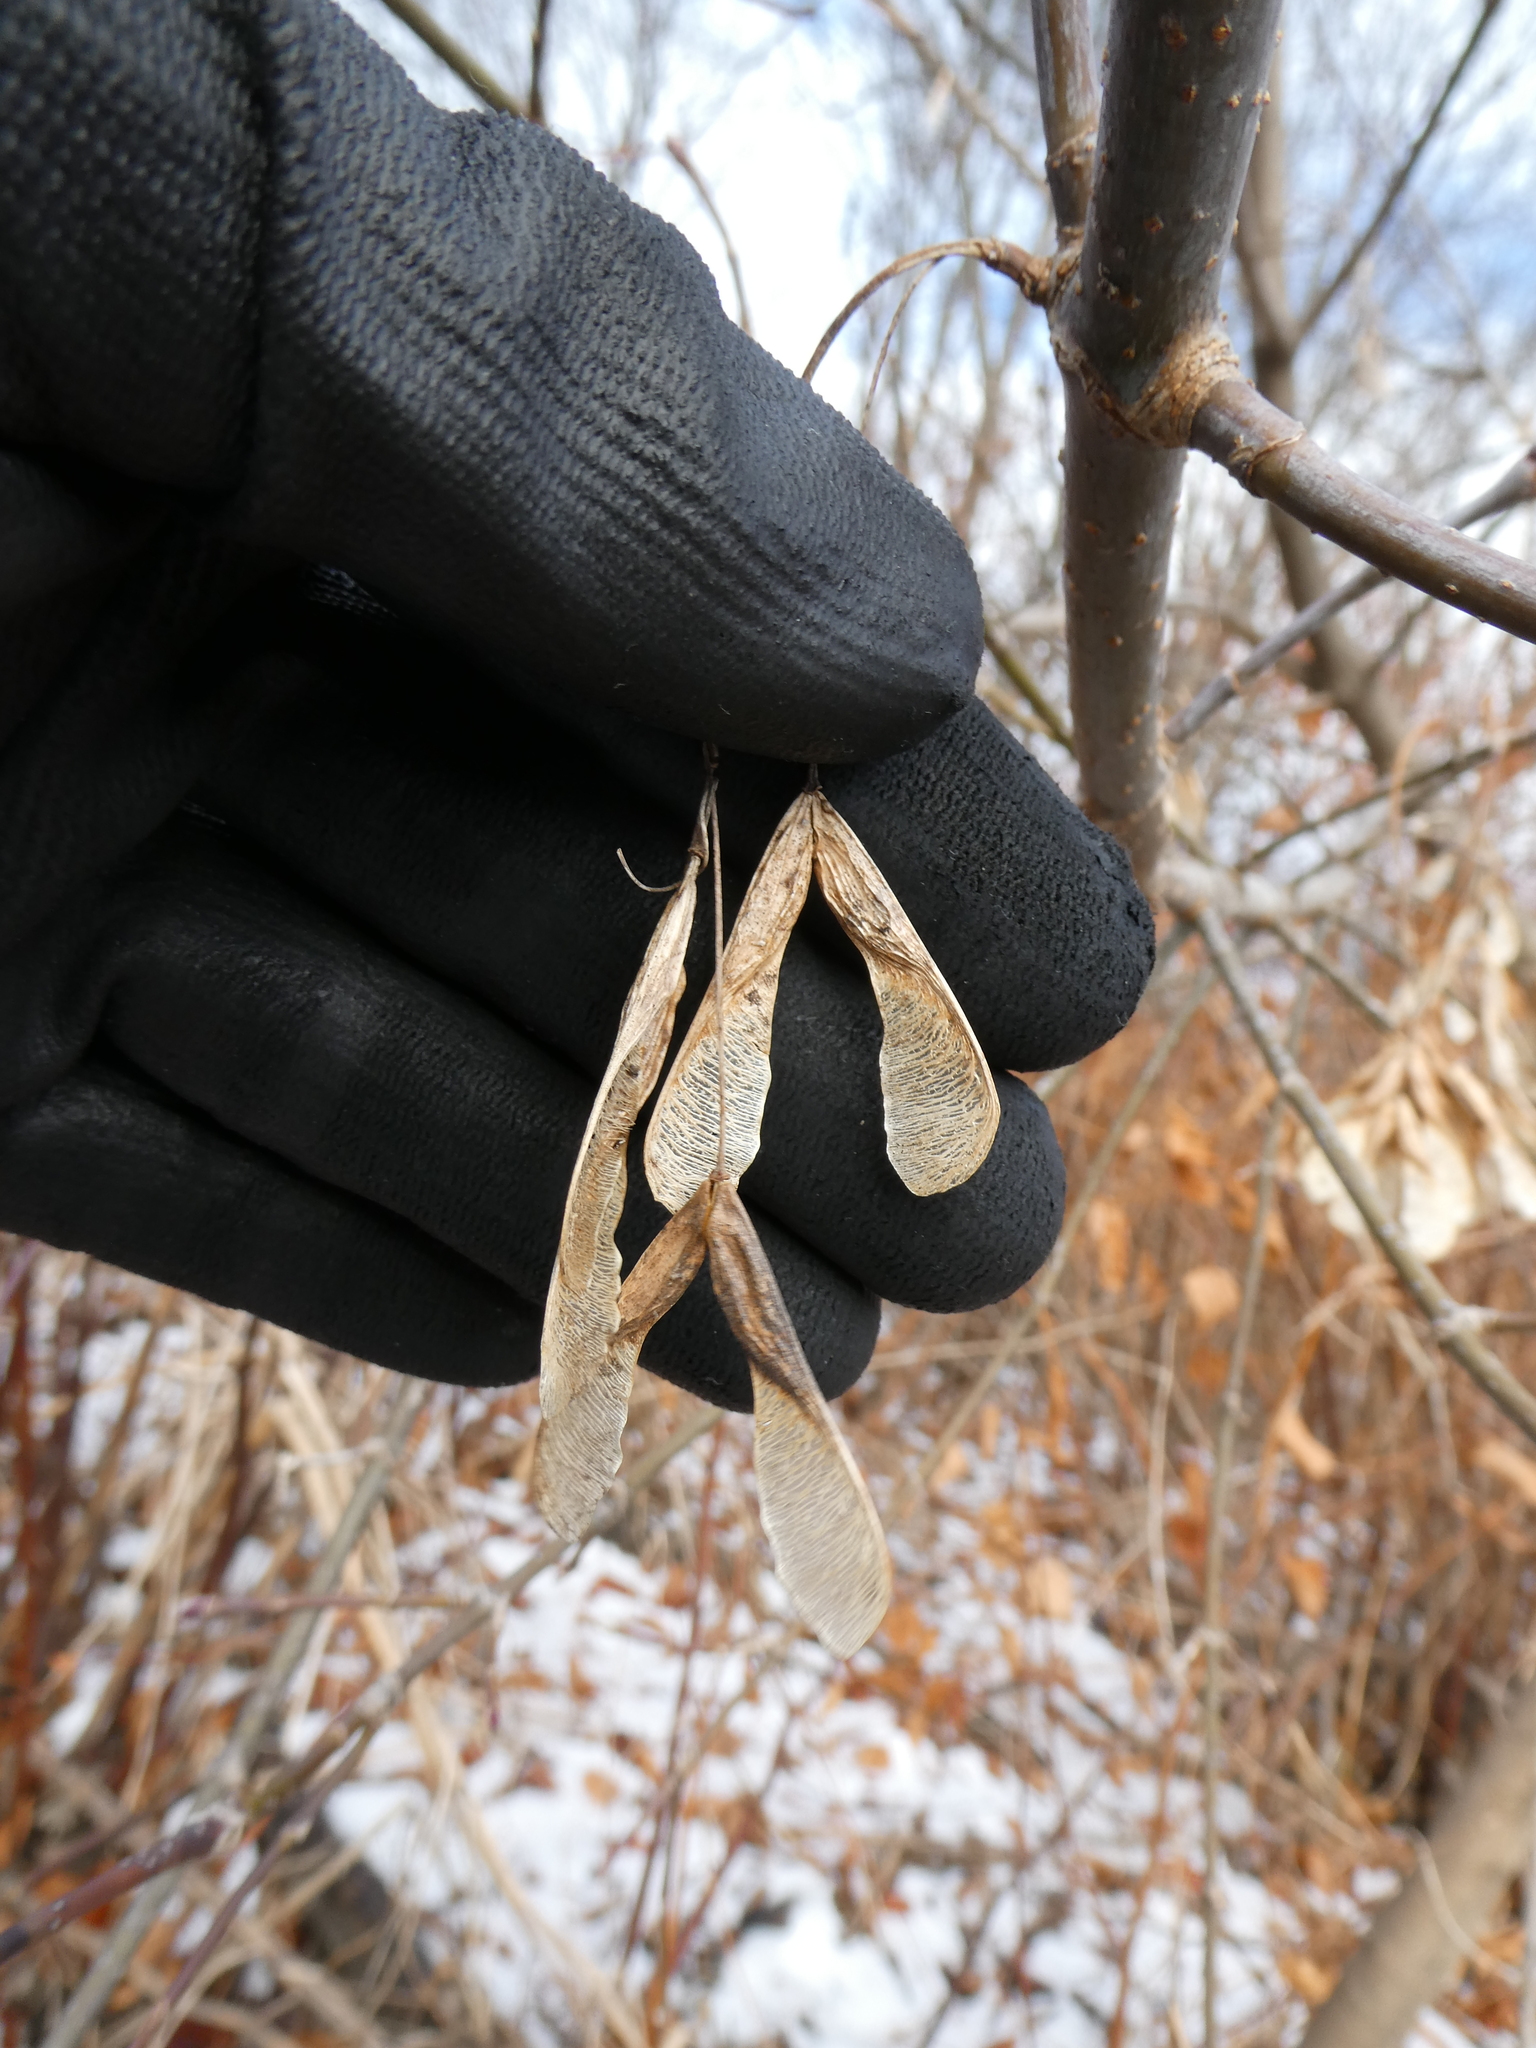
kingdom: Plantae
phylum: Tracheophyta
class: Magnoliopsida
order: Sapindales
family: Sapindaceae
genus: Acer
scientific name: Acer negundo
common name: Ashleaf maple
